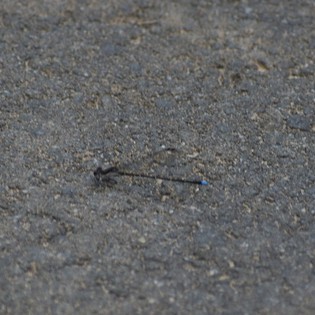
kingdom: Animalia
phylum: Arthropoda
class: Insecta
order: Odonata
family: Coenagrionidae
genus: Argia
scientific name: Argia tibialis
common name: Blue-tipped dancer
